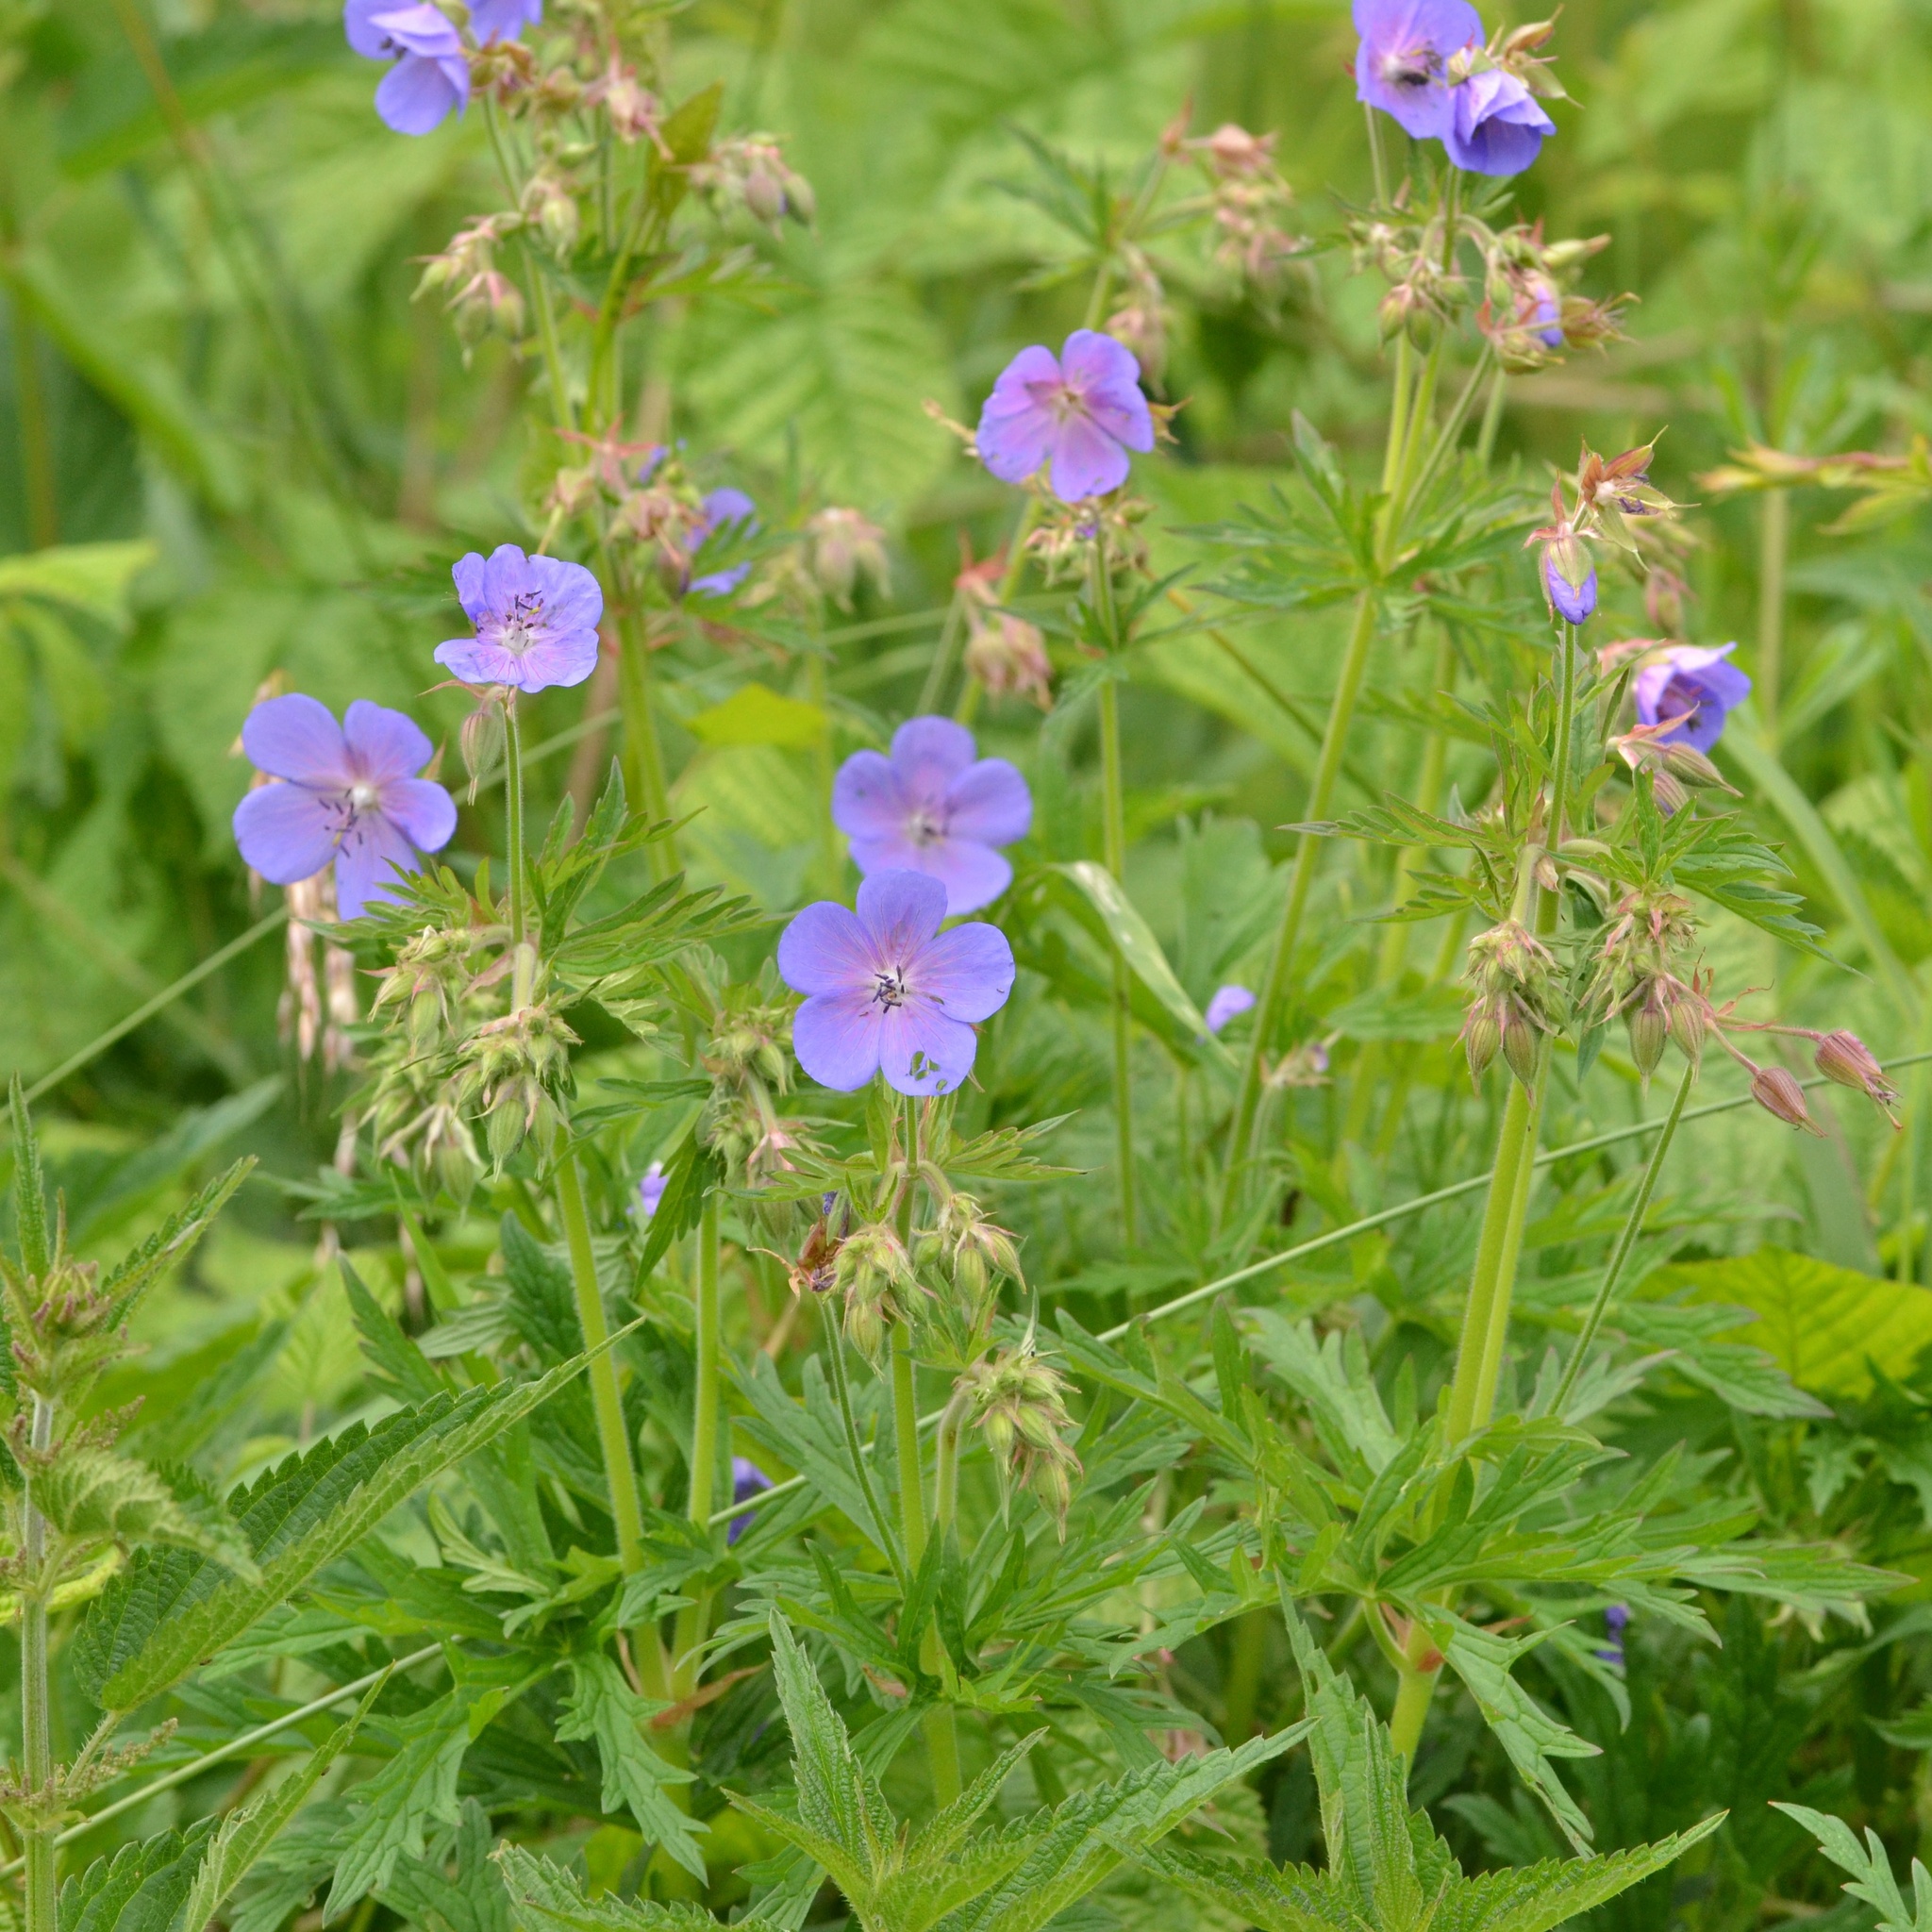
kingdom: Plantae
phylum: Tracheophyta
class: Magnoliopsida
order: Geraniales
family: Geraniaceae
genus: Geranium
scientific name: Geranium pratense
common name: Meadow crane's-bill
